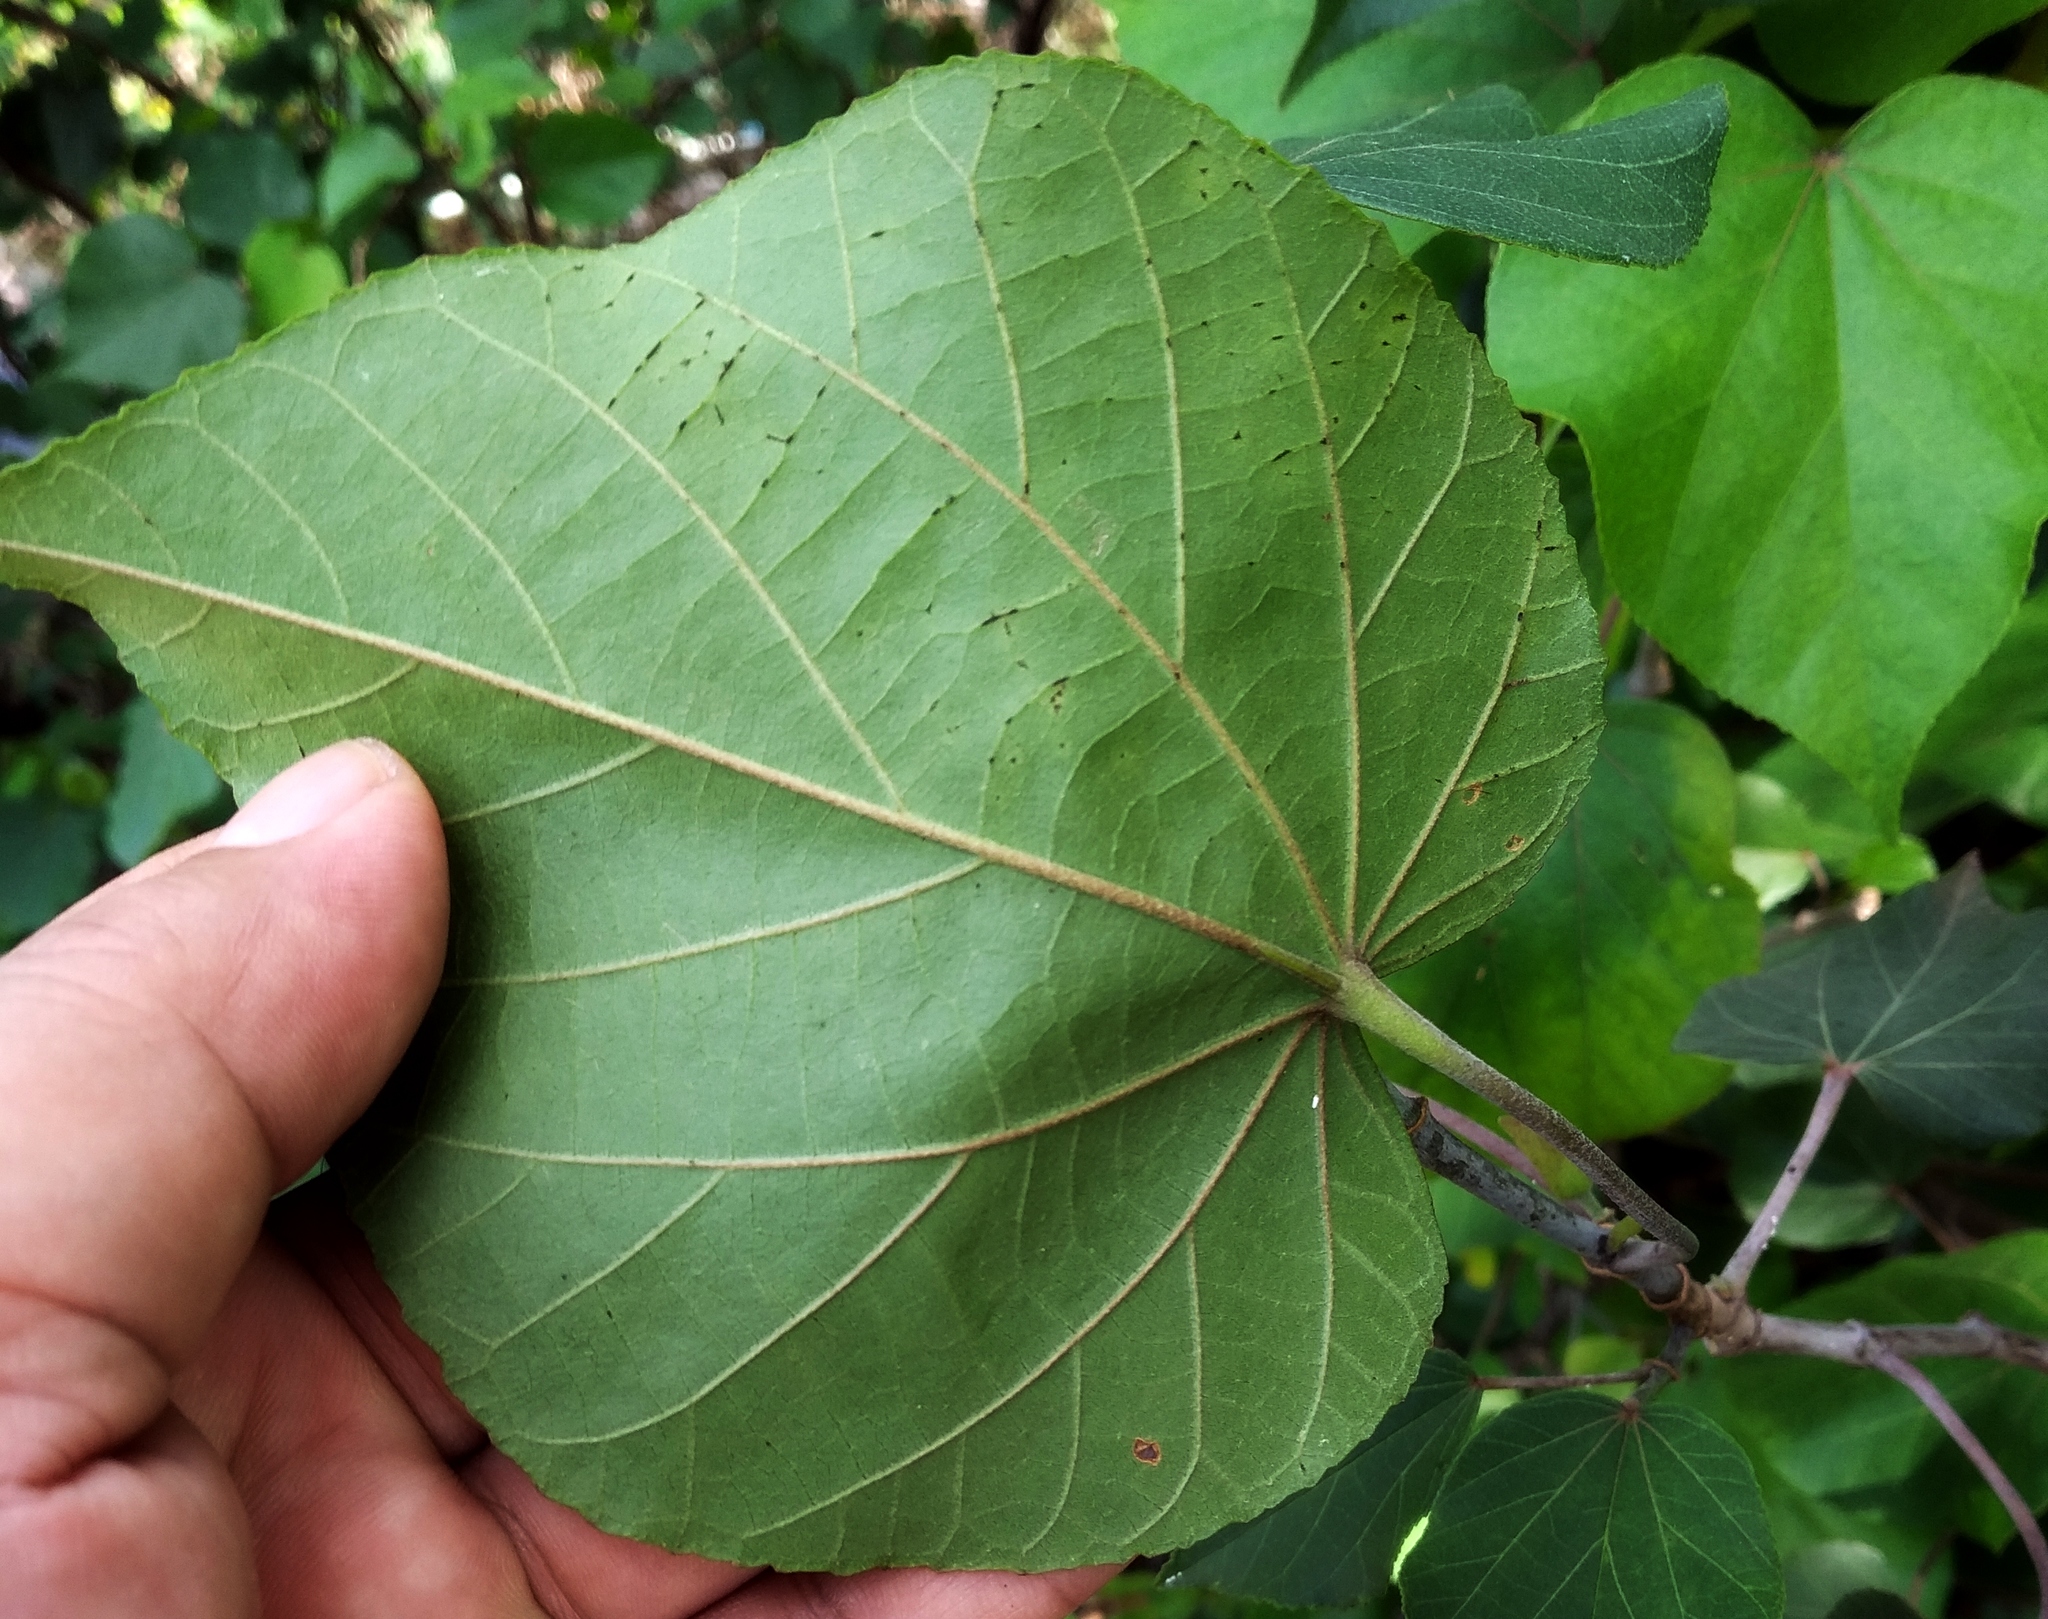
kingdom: Plantae
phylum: Tracheophyta
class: Magnoliopsida
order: Malvales
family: Malvaceae
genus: Talipariti
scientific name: Talipariti tiliaceum
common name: Sea hibiscus
